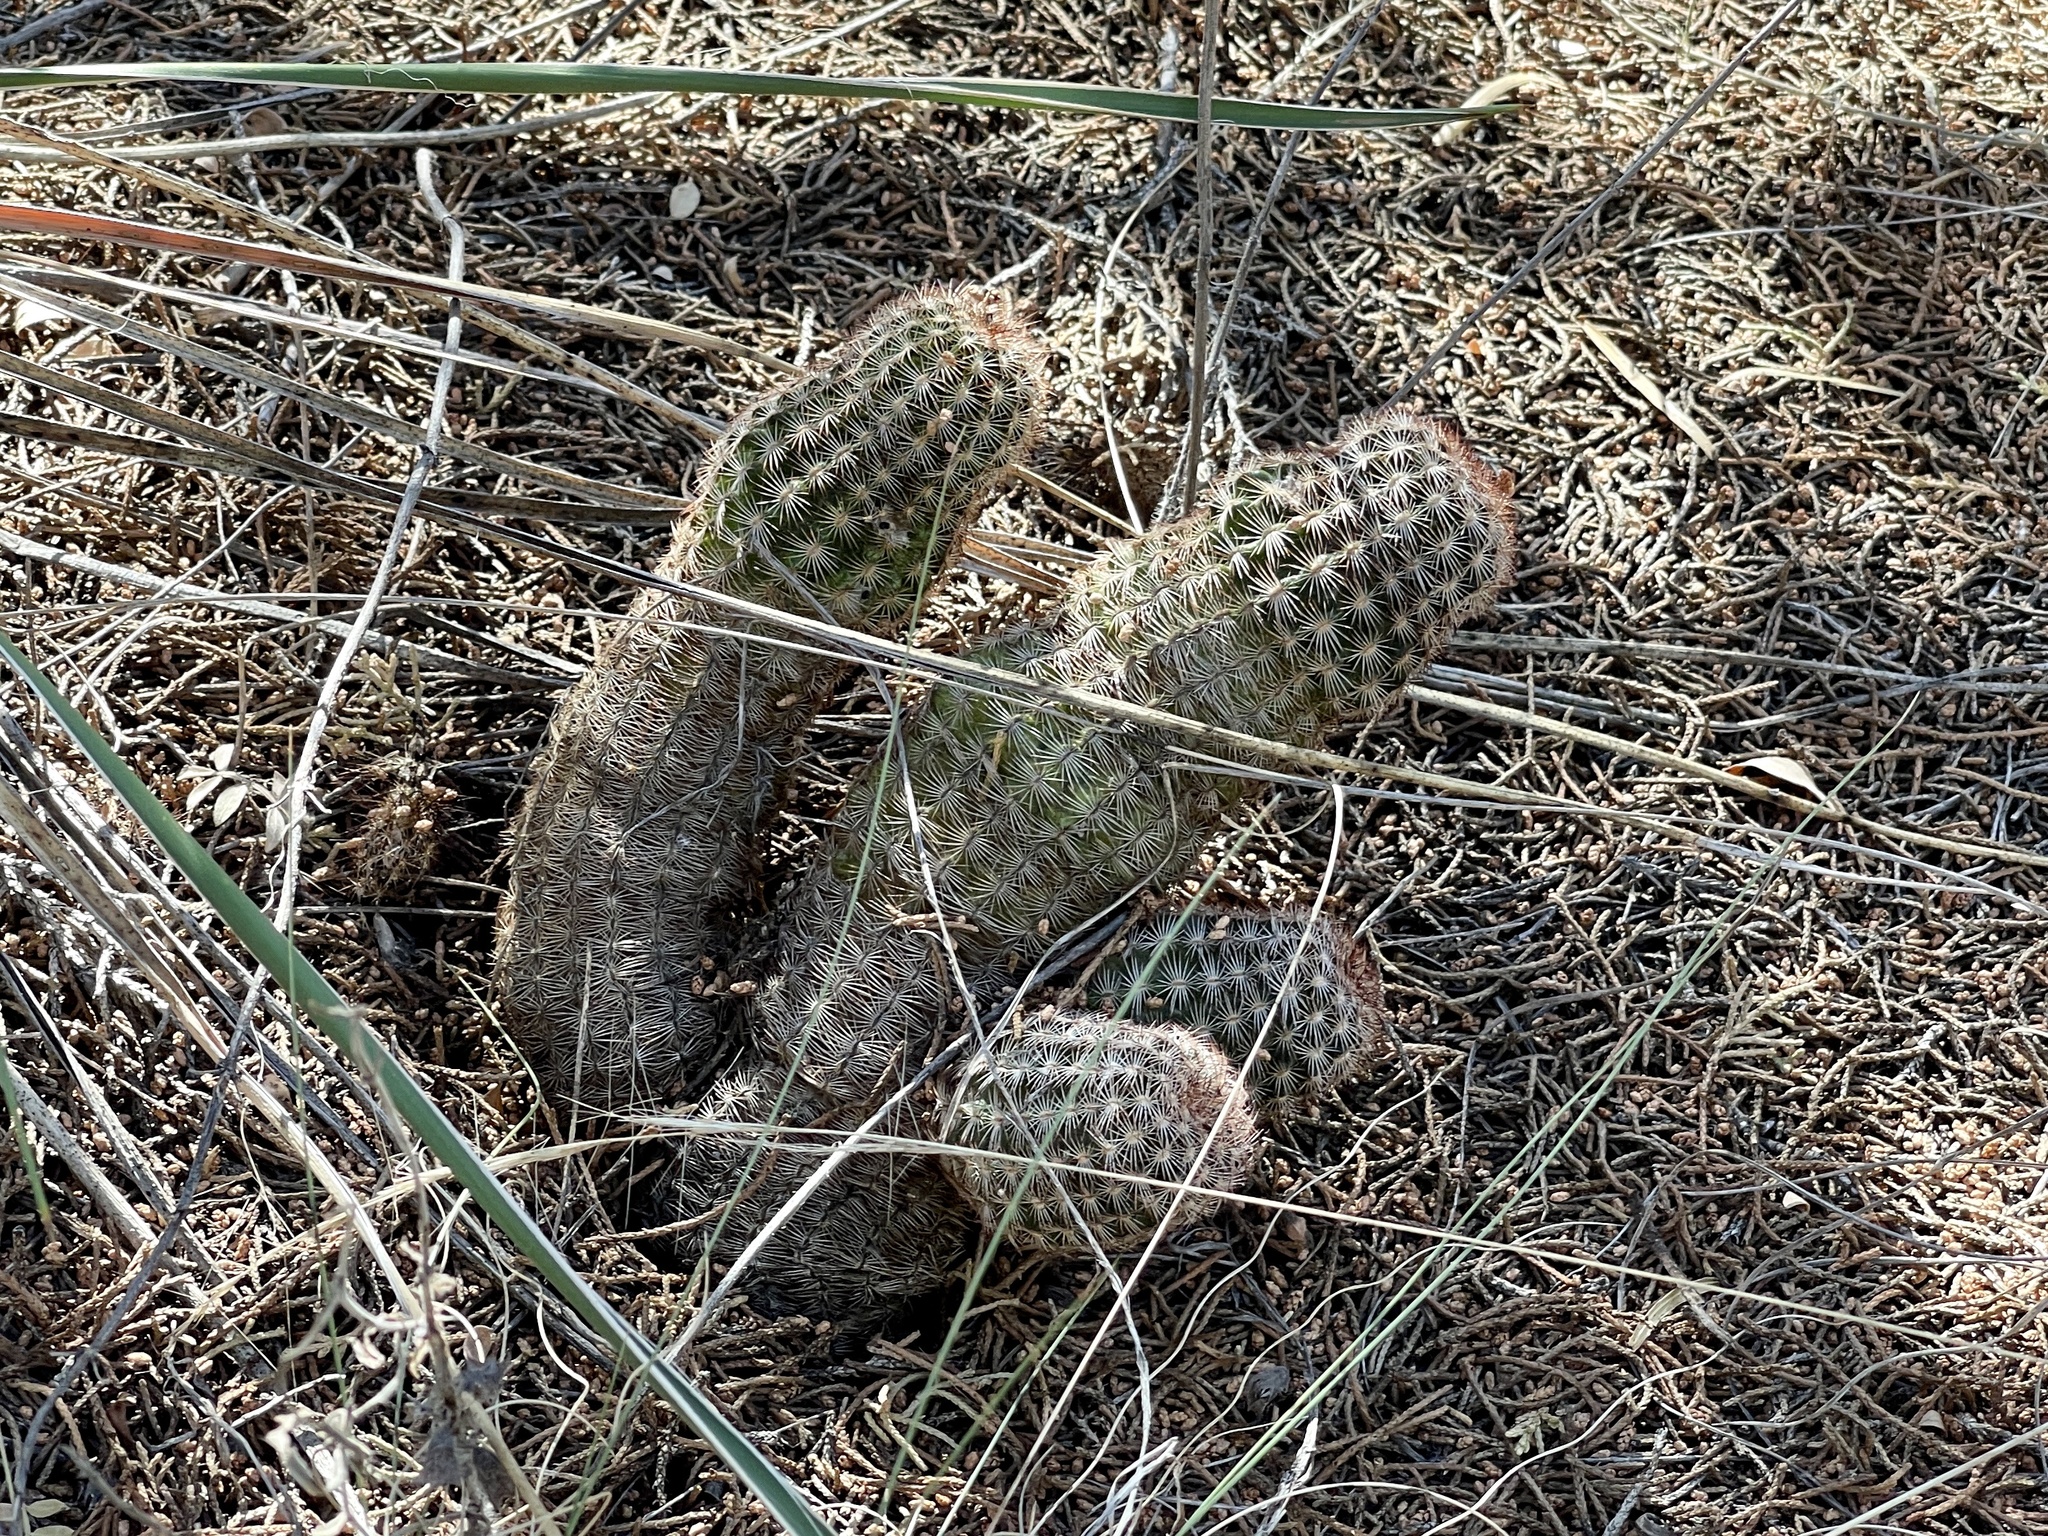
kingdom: Plantae
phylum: Tracheophyta
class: Magnoliopsida
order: Caryophyllales
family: Cactaceae
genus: Echinocereus
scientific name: Echinocereus reichenbachii
